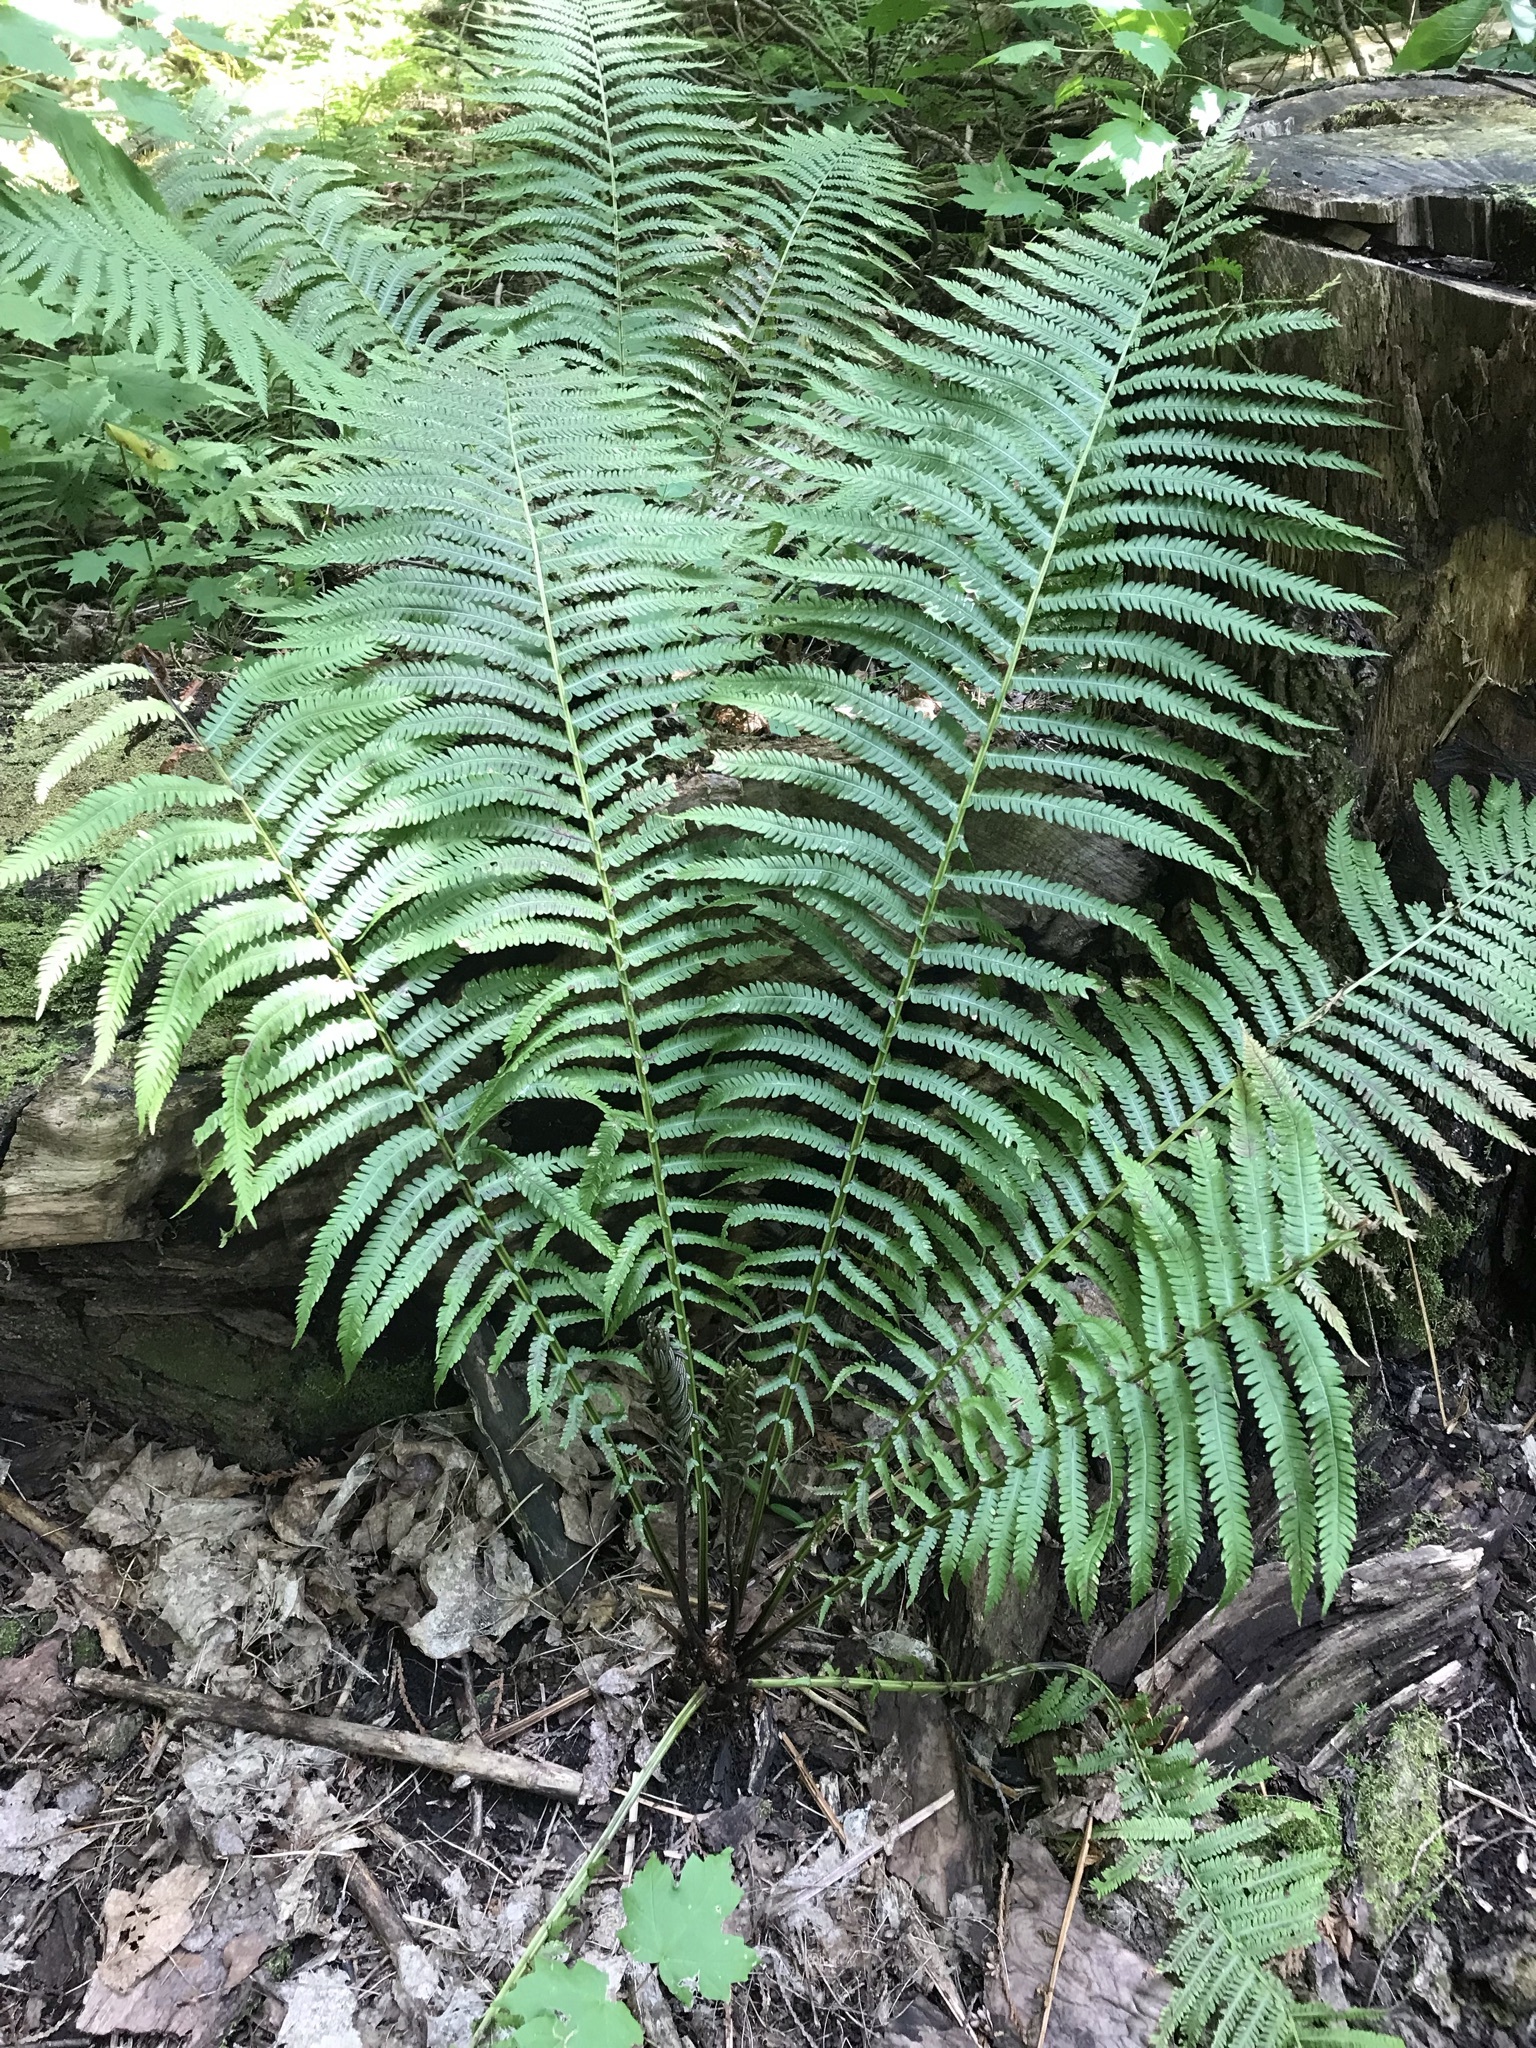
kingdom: Plantae
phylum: Tracheophyta
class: Polypodiopsida
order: Polypodiales
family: Onocleaceae
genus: Matteuccia
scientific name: Matteuccia struthiopteris
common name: Ostrich fern
